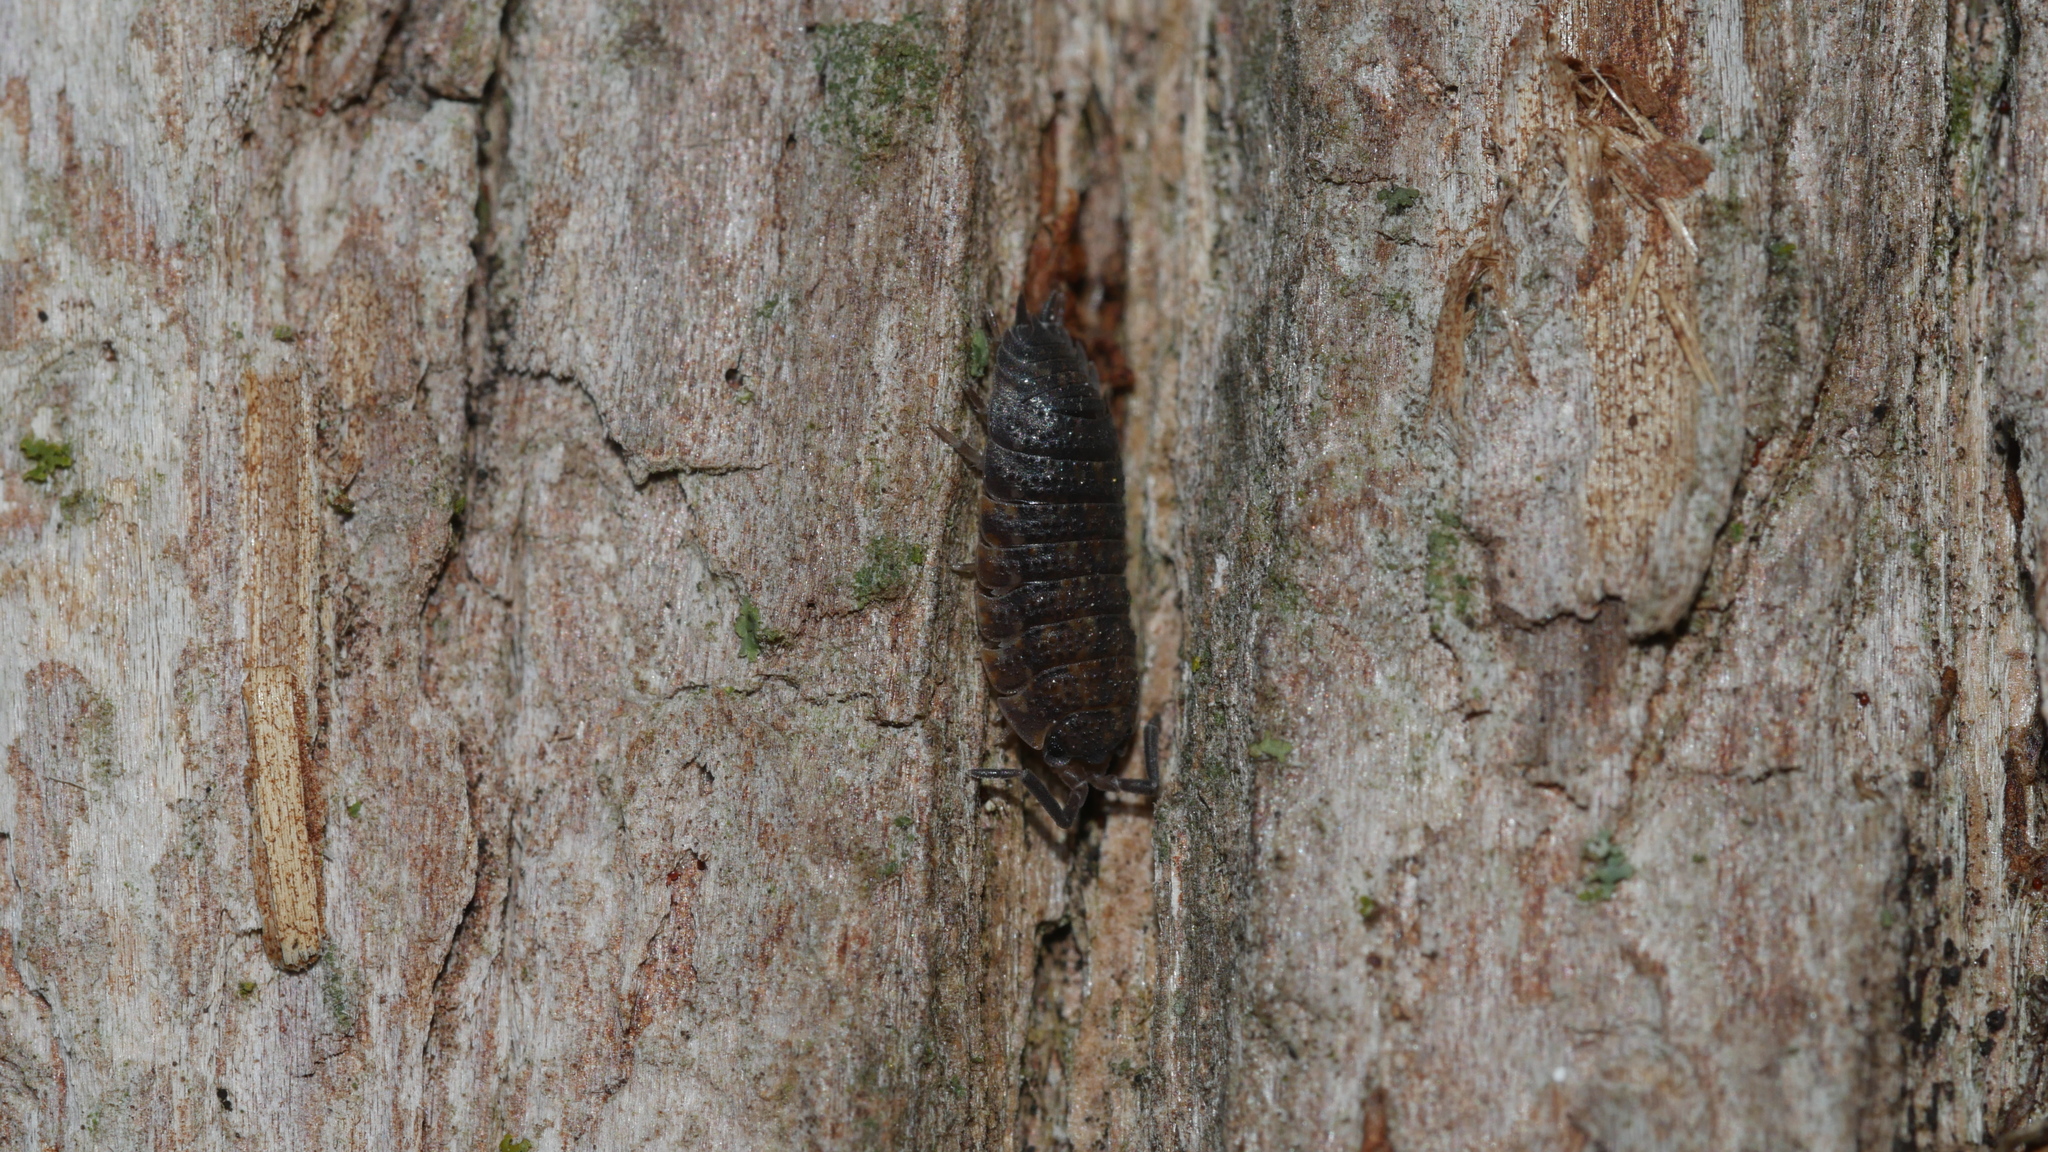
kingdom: Animalia
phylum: Arthropoda
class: Malacostraca
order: Isopoda
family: Porcellionidae
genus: Porcellio
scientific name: Porcellio scaber
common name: Common rough woodlouse
